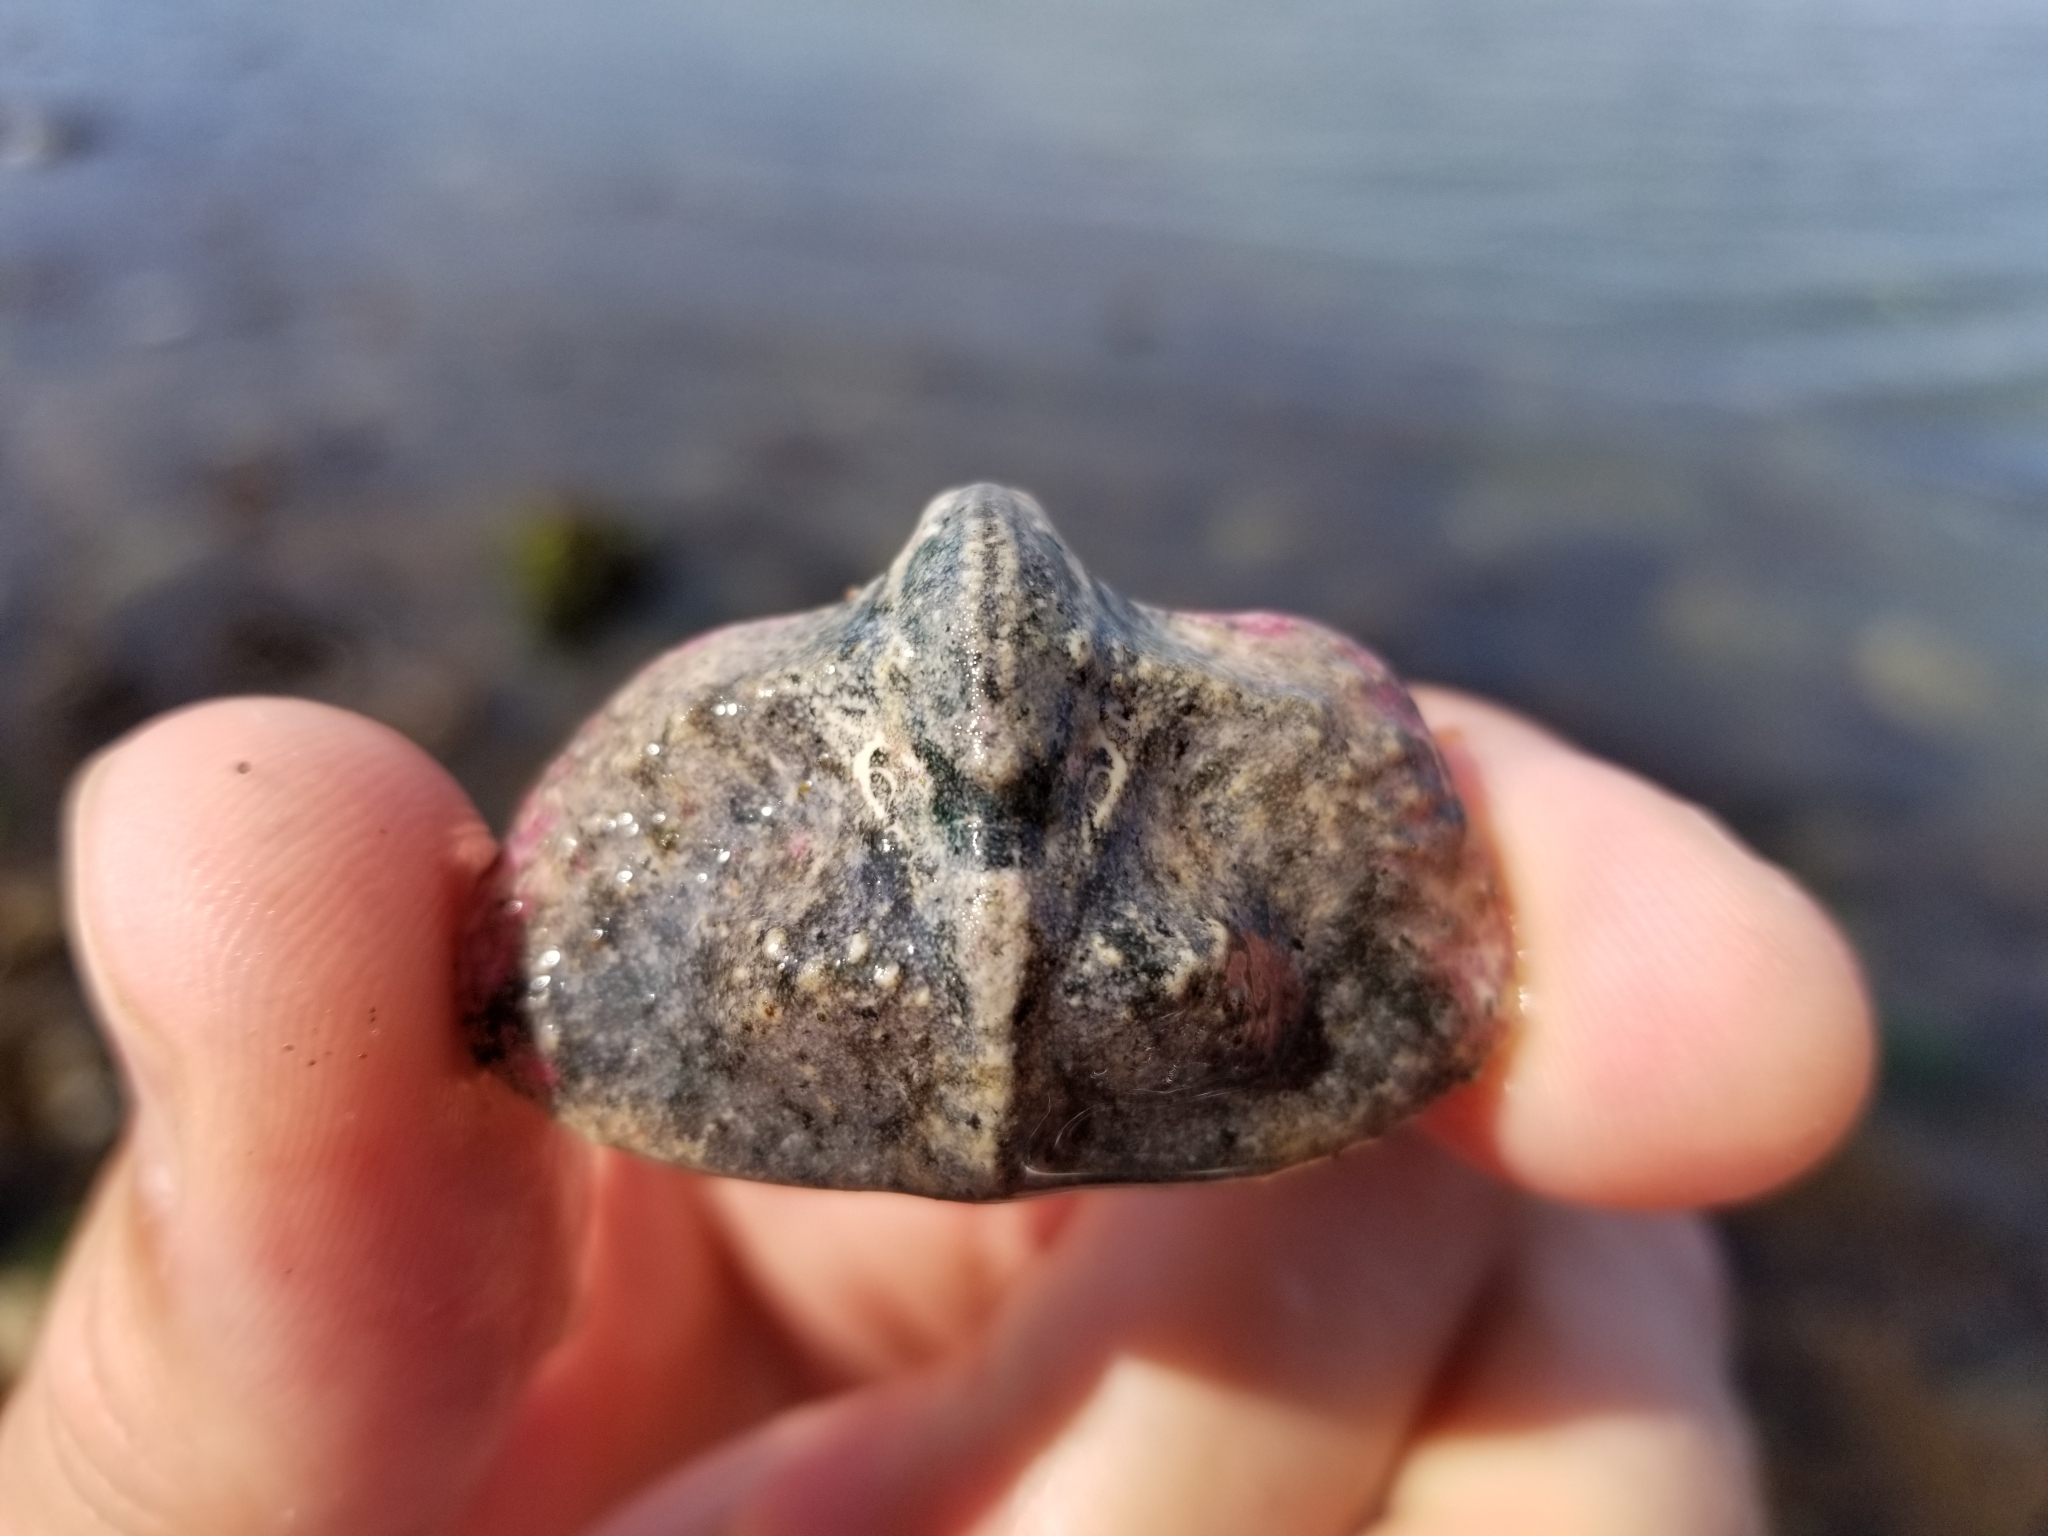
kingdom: Animalia
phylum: Arthropoda
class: Malacostraca
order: Decapoda
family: Lithodidae
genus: Cryptolithodes
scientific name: Cryptolithodes typicus
